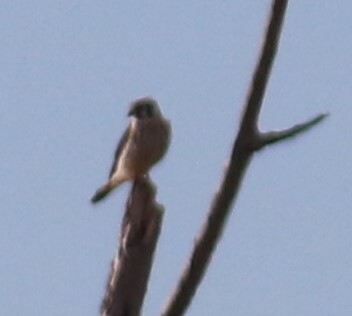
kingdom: Animalia
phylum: Chordata
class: Aves
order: Falconiformes
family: Falconidae
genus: Falco
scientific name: Falco sparverius
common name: American kestrel
